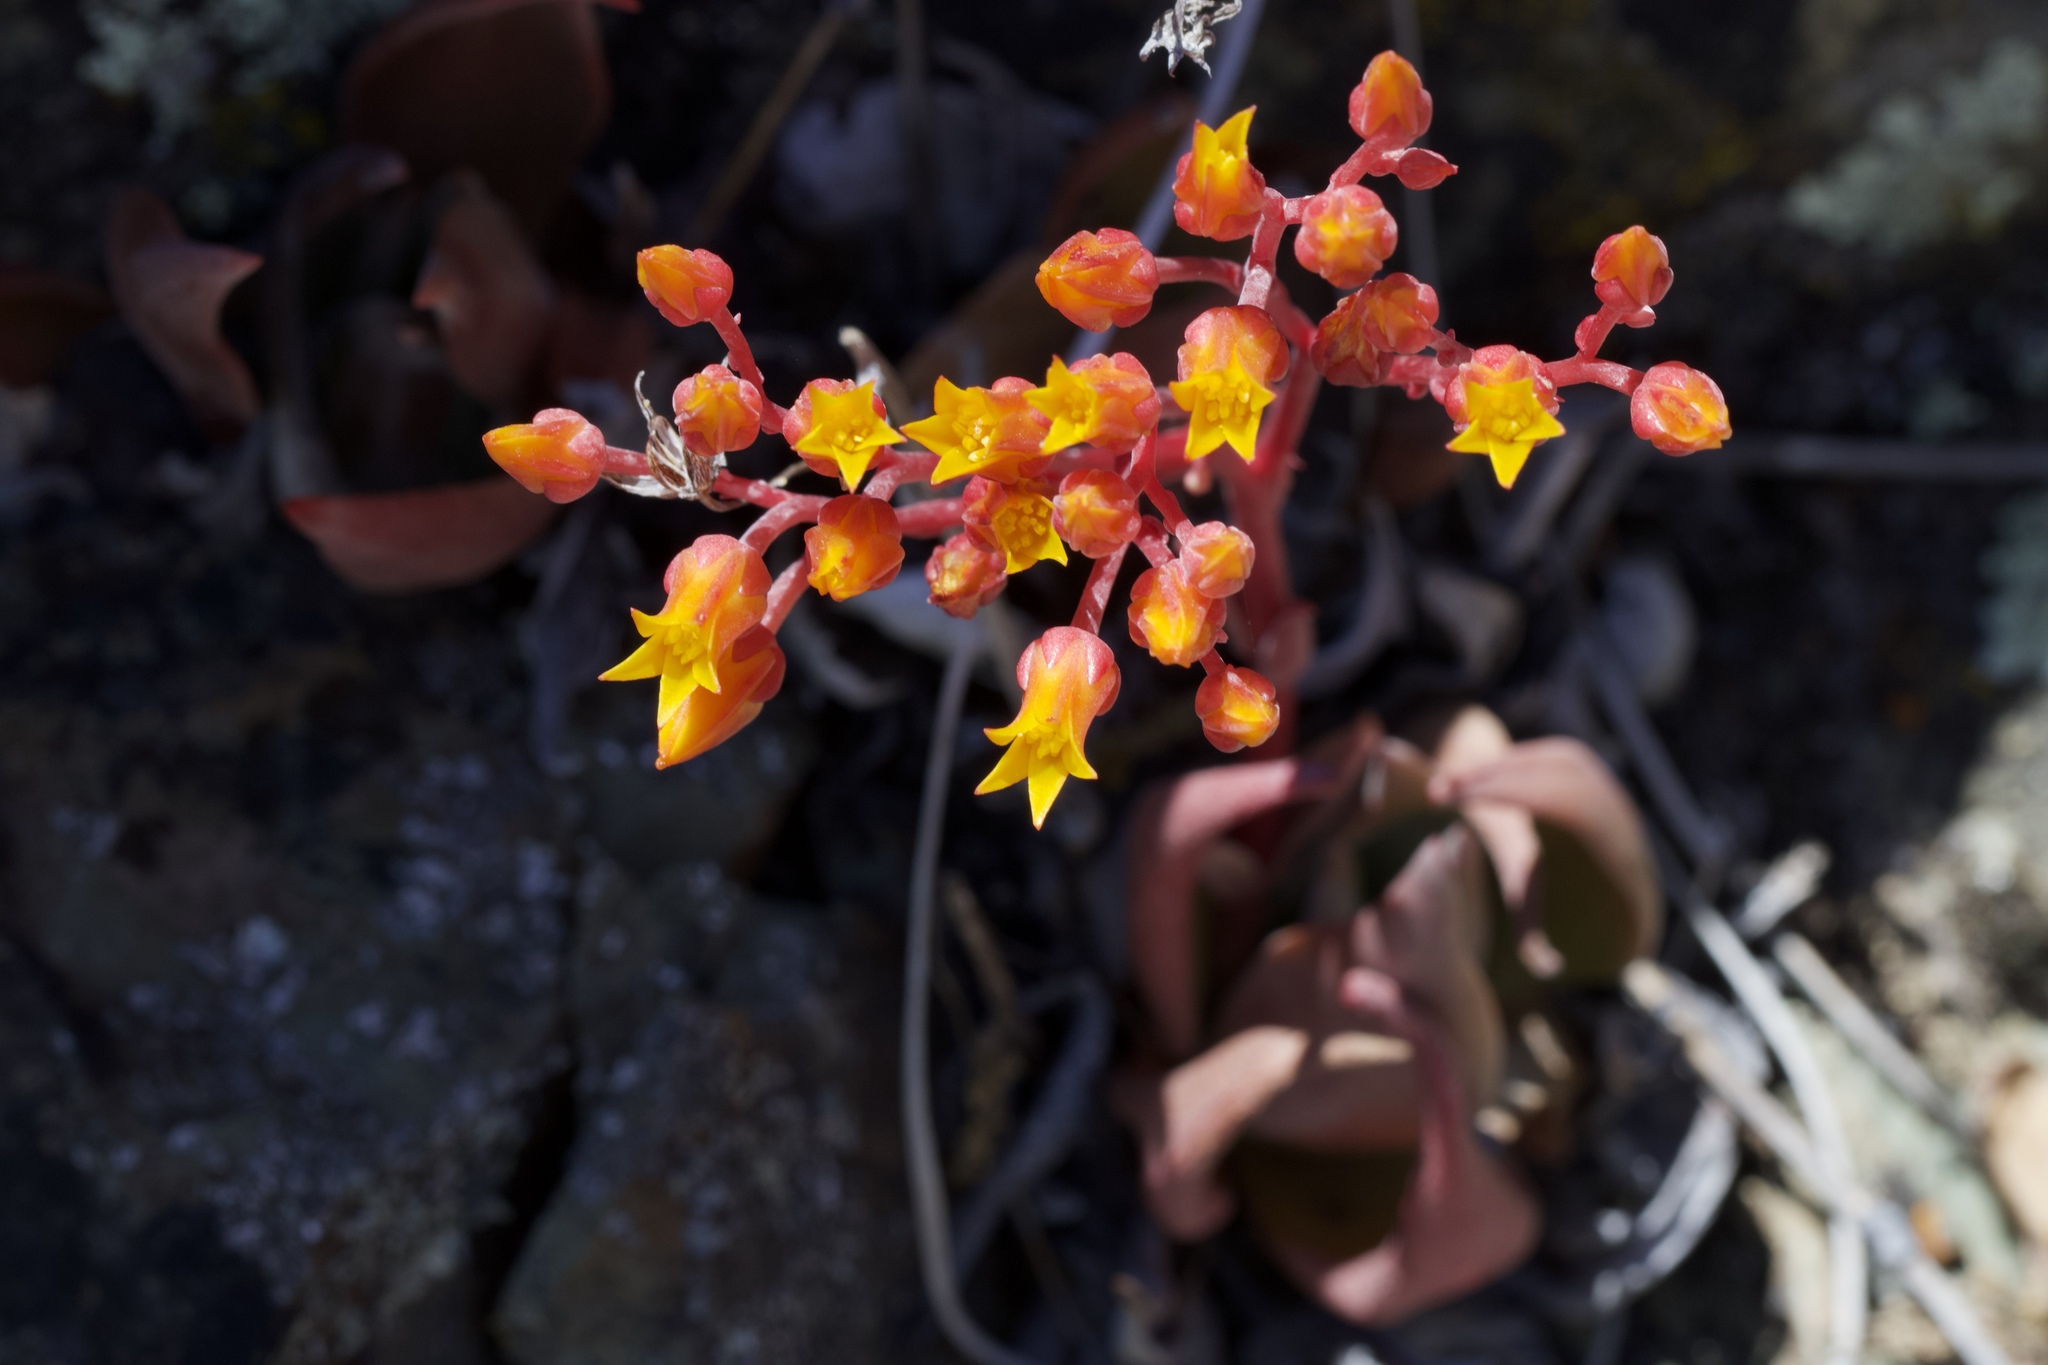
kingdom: Plantae
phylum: Tracheophyta
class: Magnoliopsida
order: Saxifragales
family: Crassulaceae
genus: Dudleya
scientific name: Dudleya cymosa
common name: Canyon dudleya
